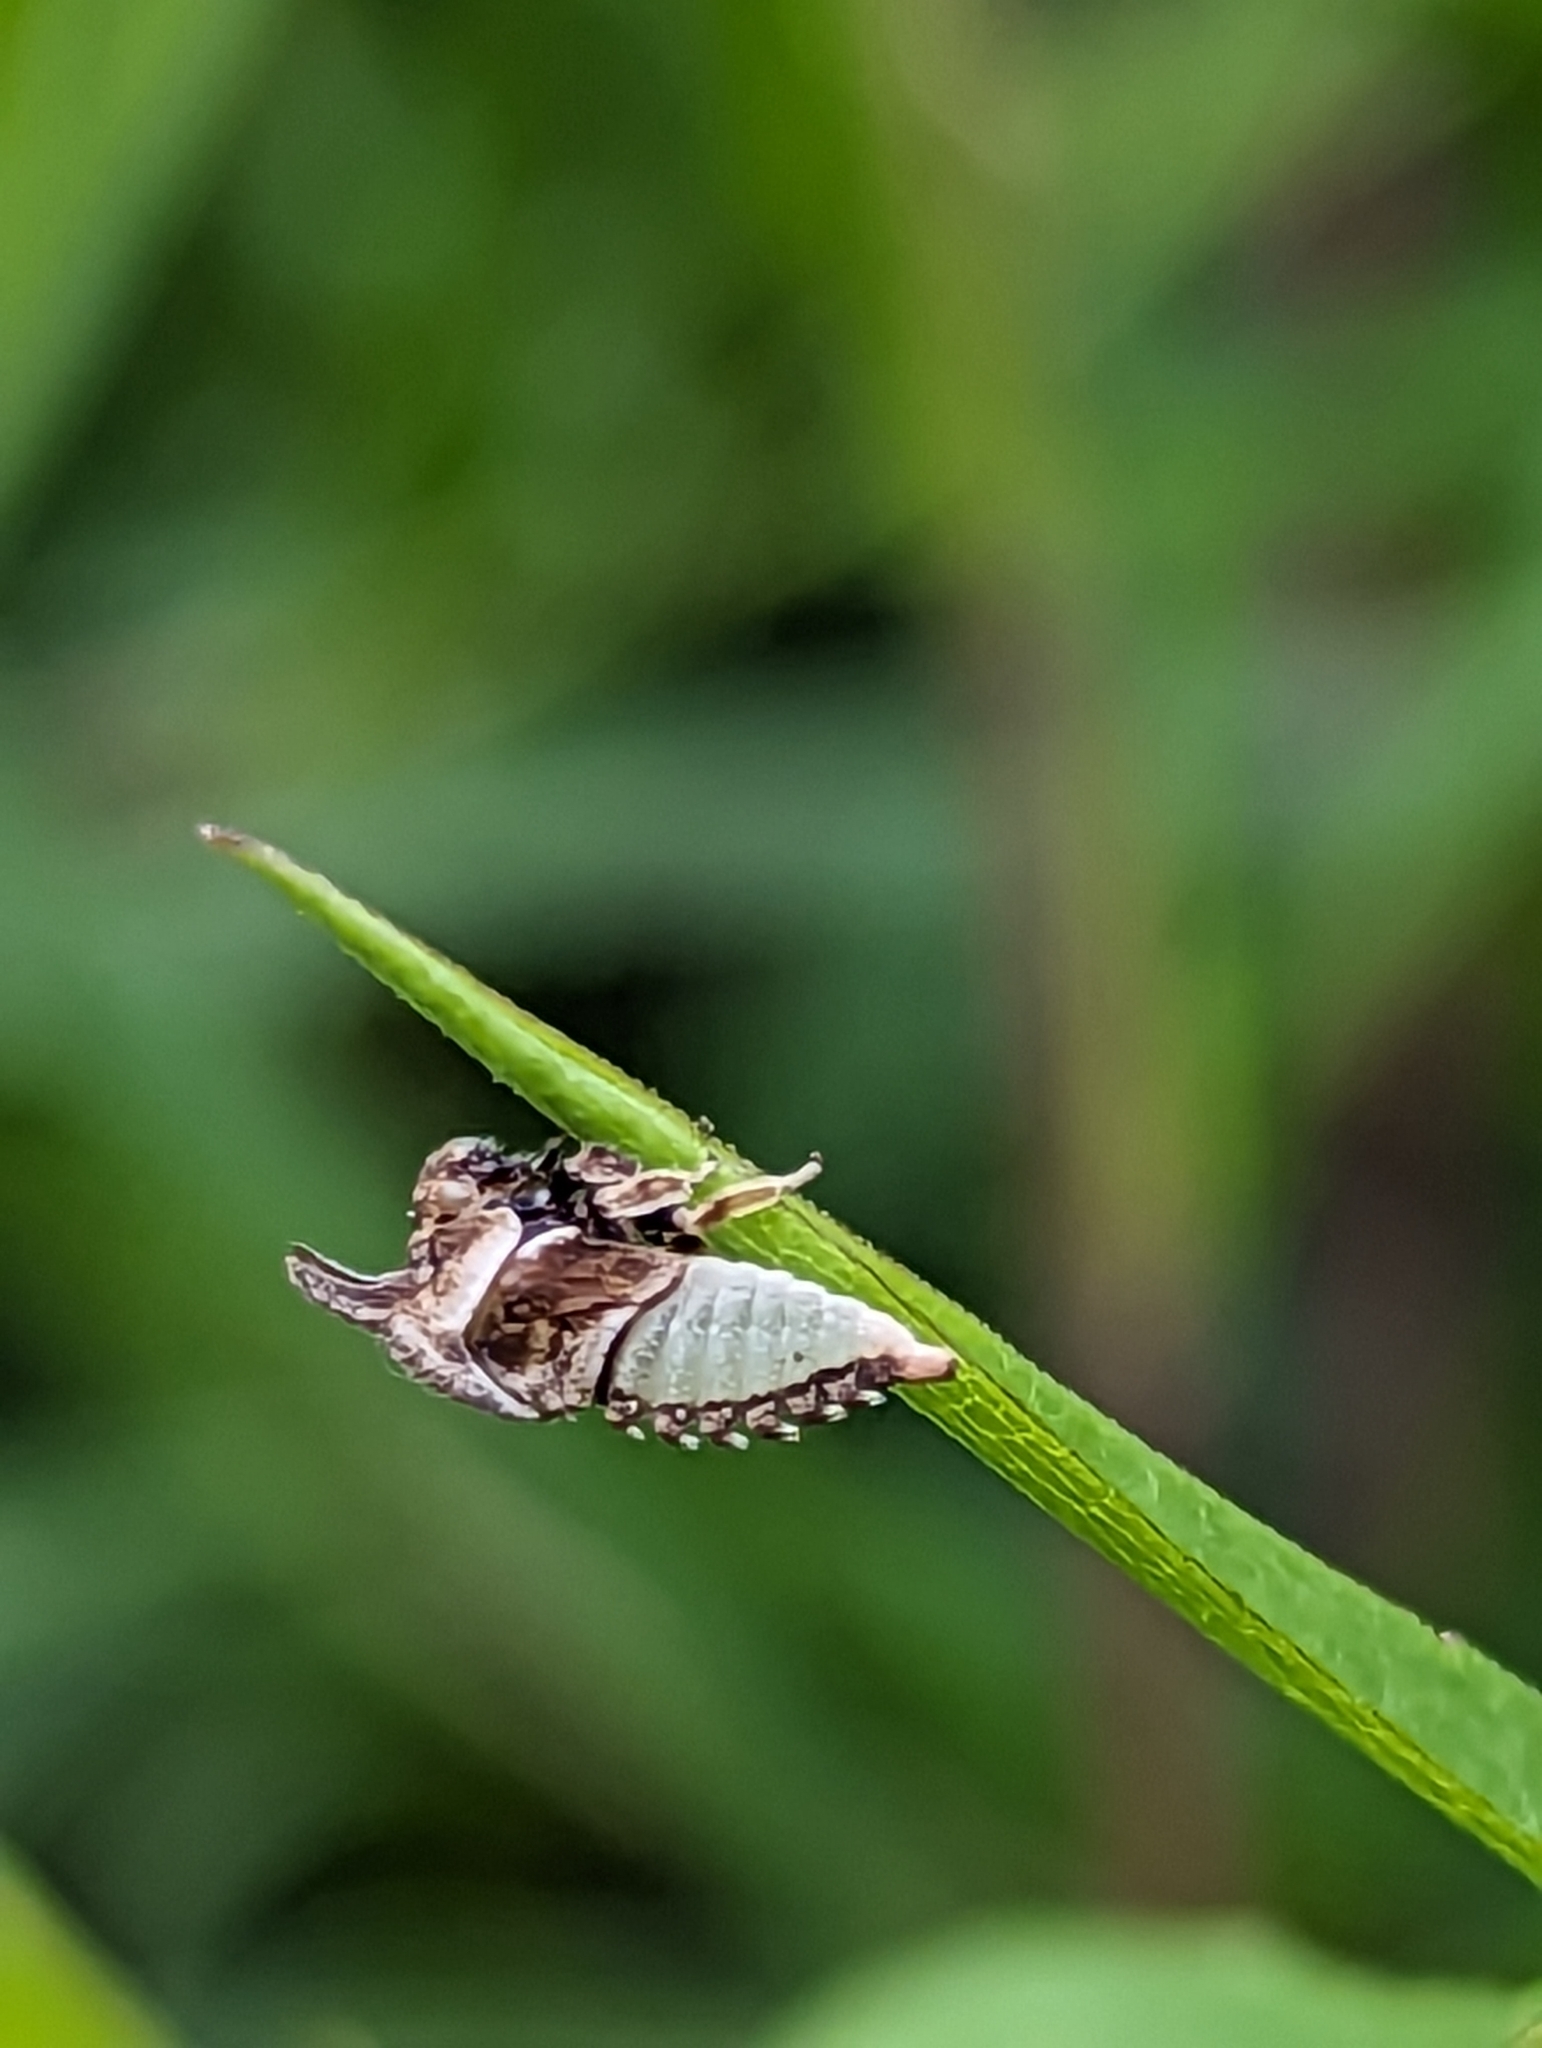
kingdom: Animalia
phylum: Arthropoda
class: Insecta
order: Hemiptera
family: Membracidae
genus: Enchenopa
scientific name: Enchenopa latipes
